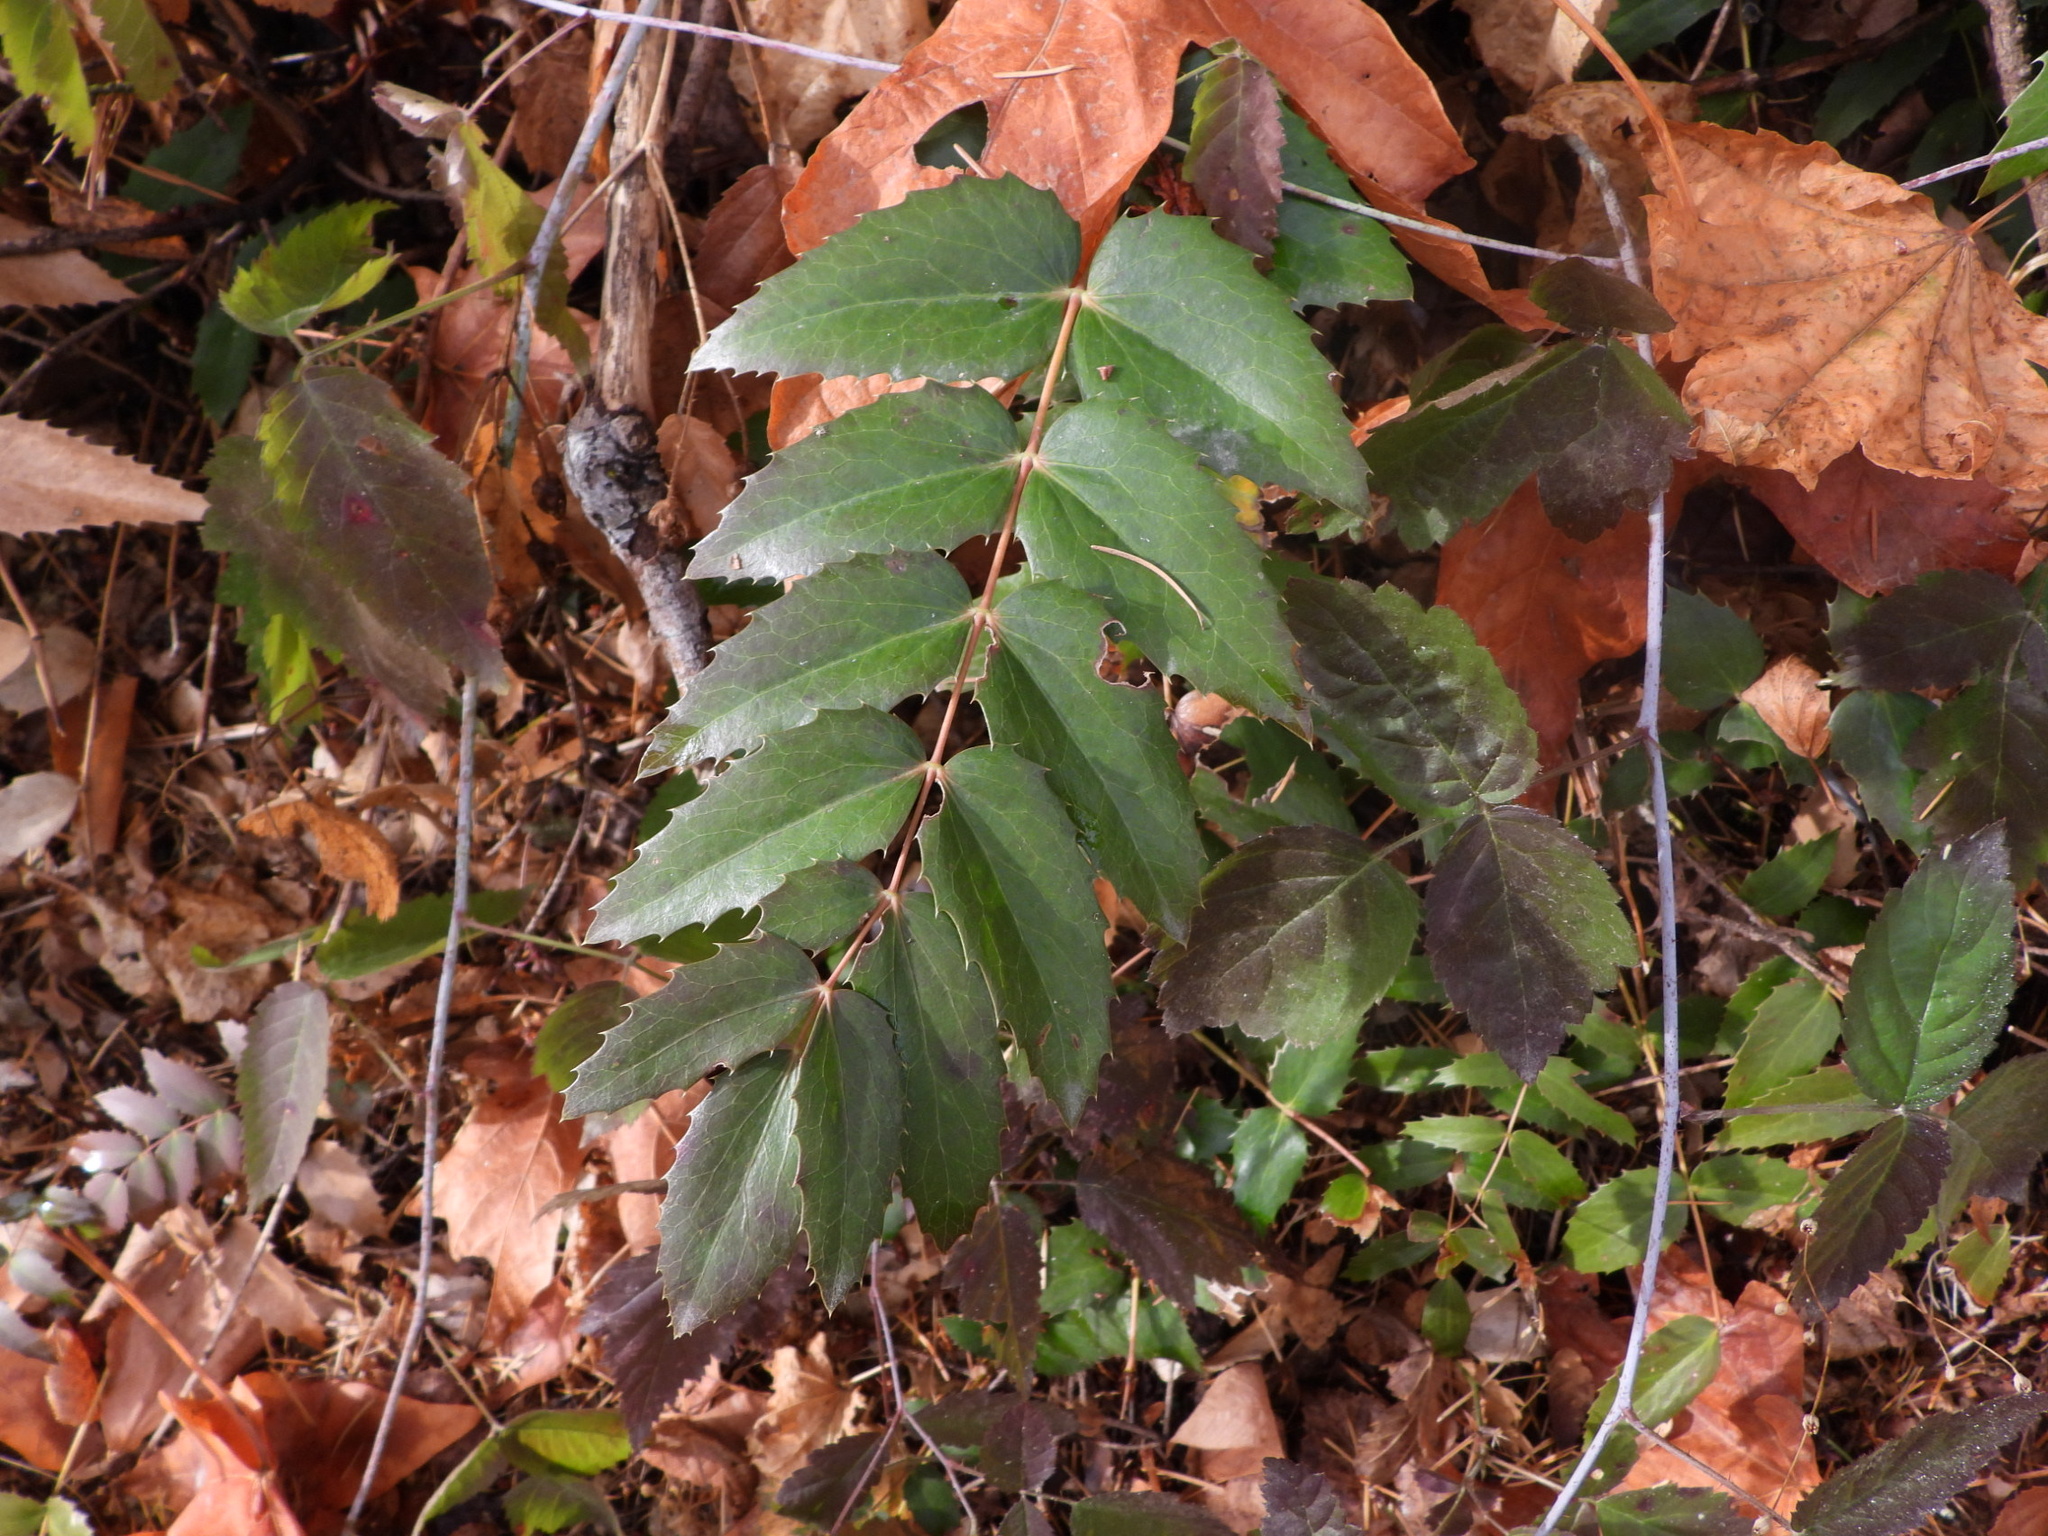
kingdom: Plantae
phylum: Tracheophyta
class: Magnoliopsida
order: Ranunculales
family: Berberidaceae
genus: Mahonia
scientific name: Mahonia nervosa
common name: Cascade oregon-grape
